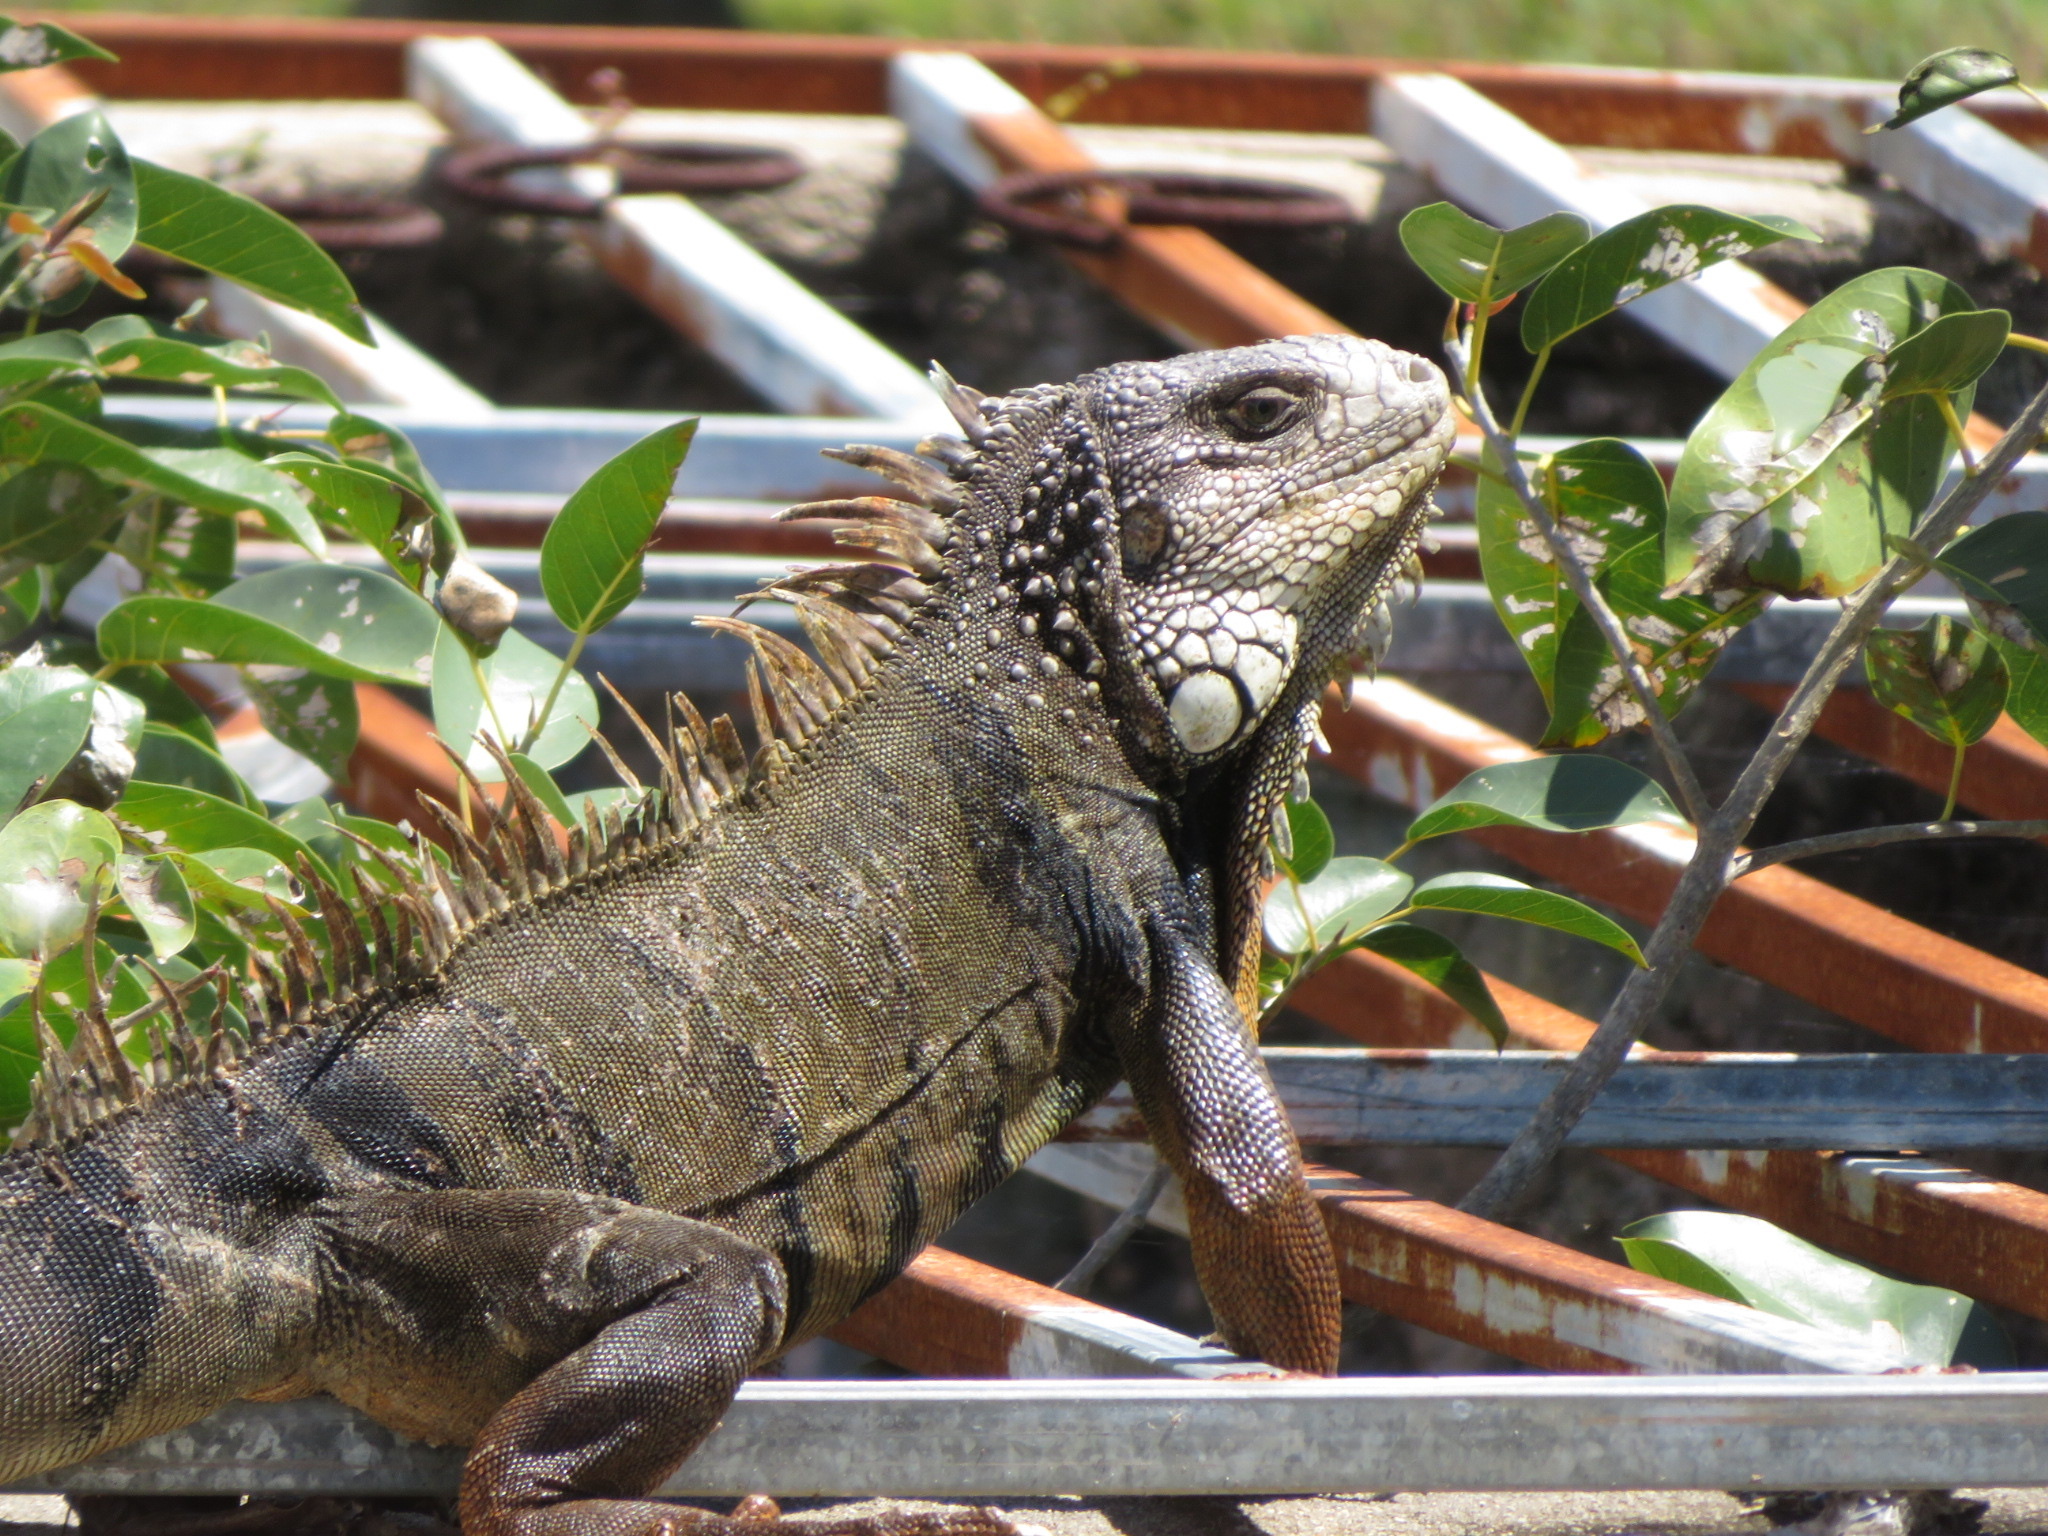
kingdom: Animalia
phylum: Chordata
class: Squamata
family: Iguanidae
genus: Iguana
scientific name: Iguana iguana
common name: Green iguana
